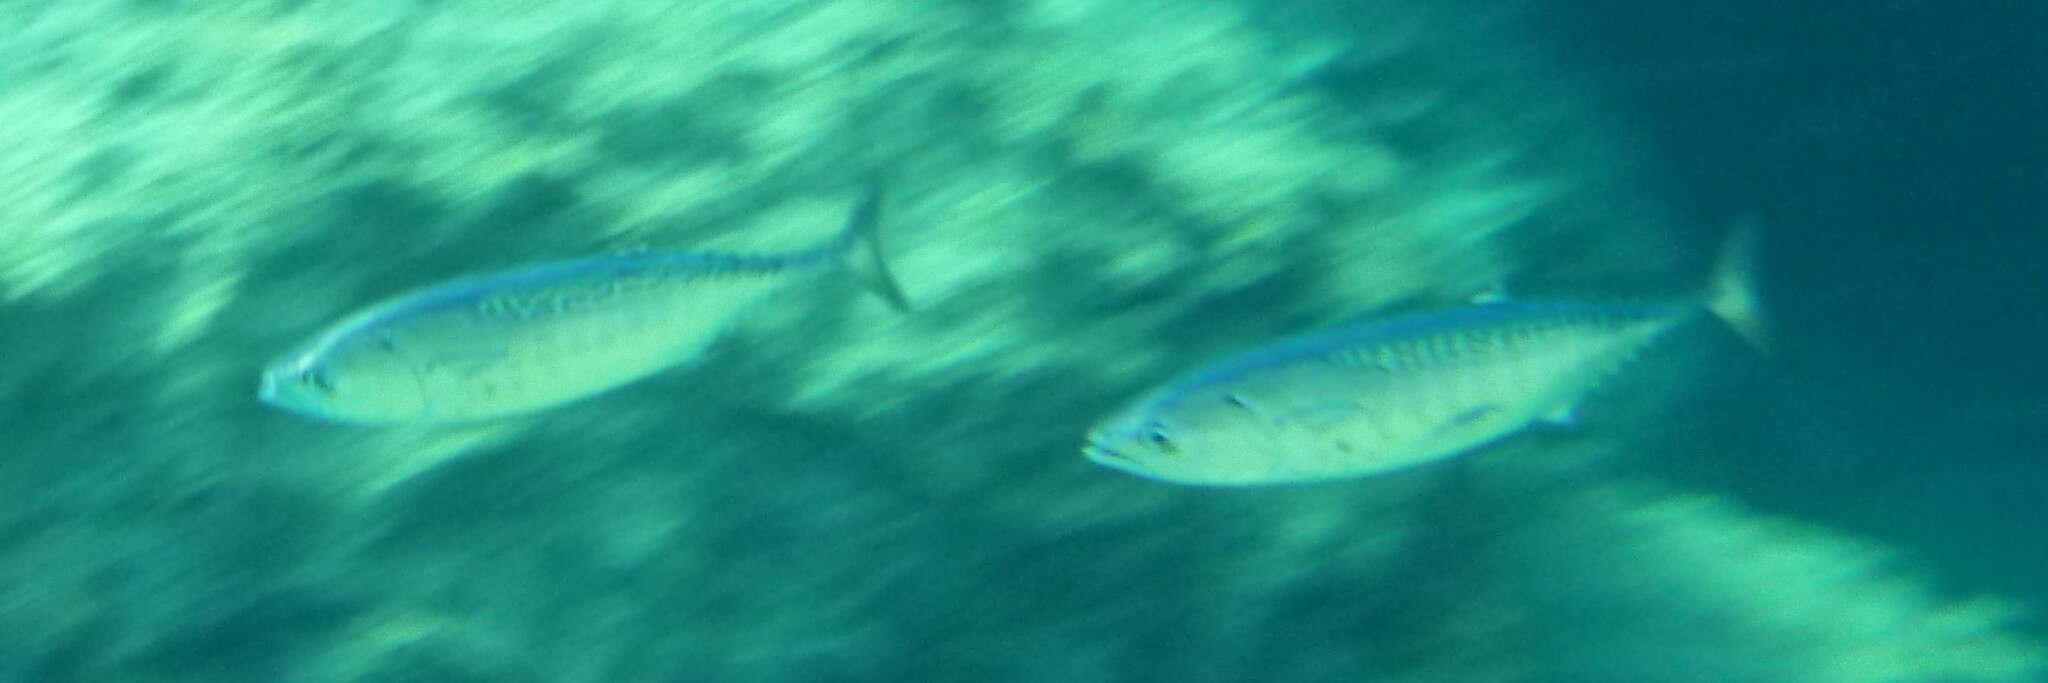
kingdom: Animalia
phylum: Chordata
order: Perciformes
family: Scombridae
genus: Euthynnus
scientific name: Euthynnus alletteratus
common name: Little tunny
